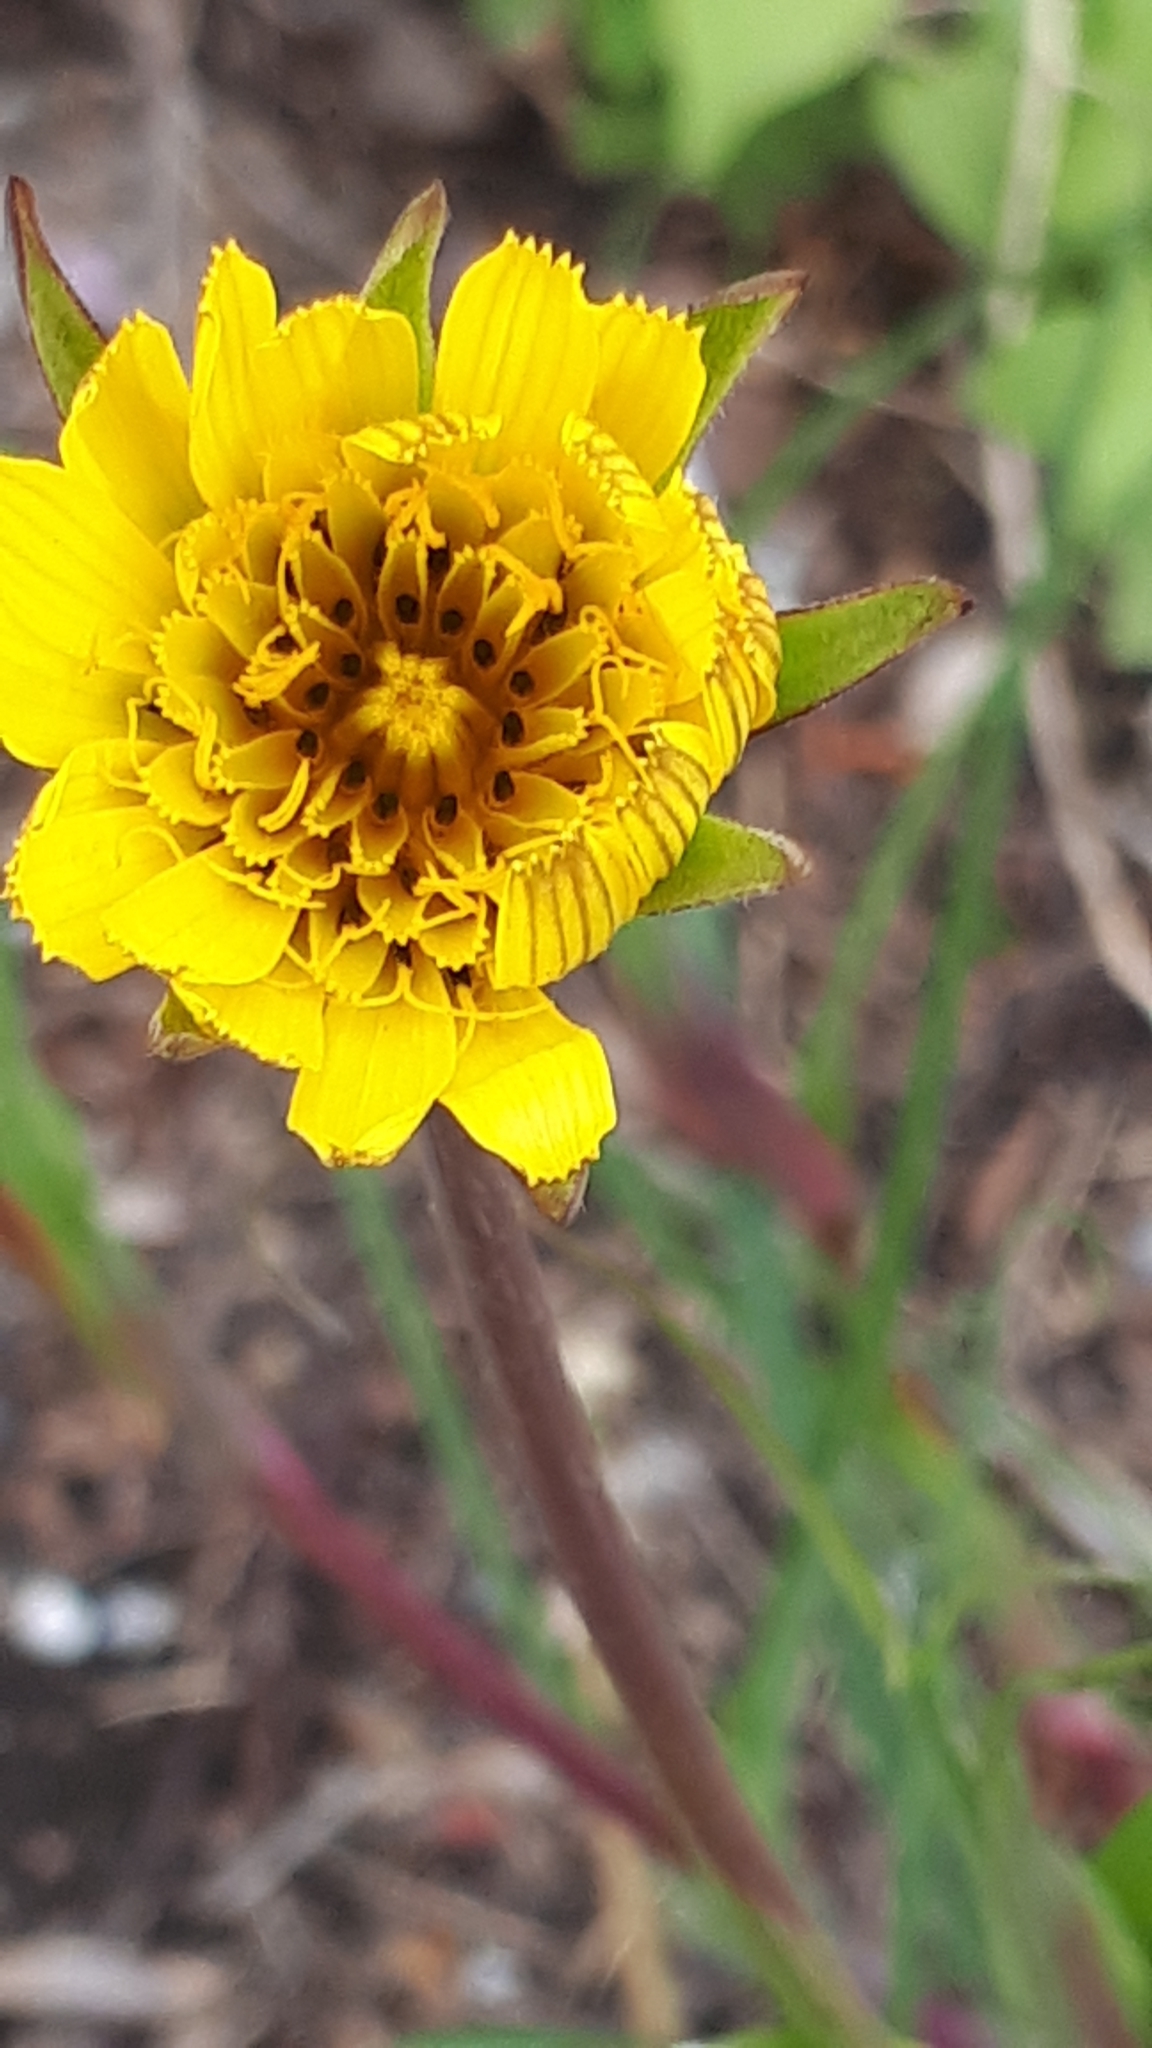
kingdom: Plantae
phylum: Tracheophyta
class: Magnoliopsida
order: Asterales
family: Asteraceae
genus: Tragopogon
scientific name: Tragopogon pratensis
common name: Goat's-beard
